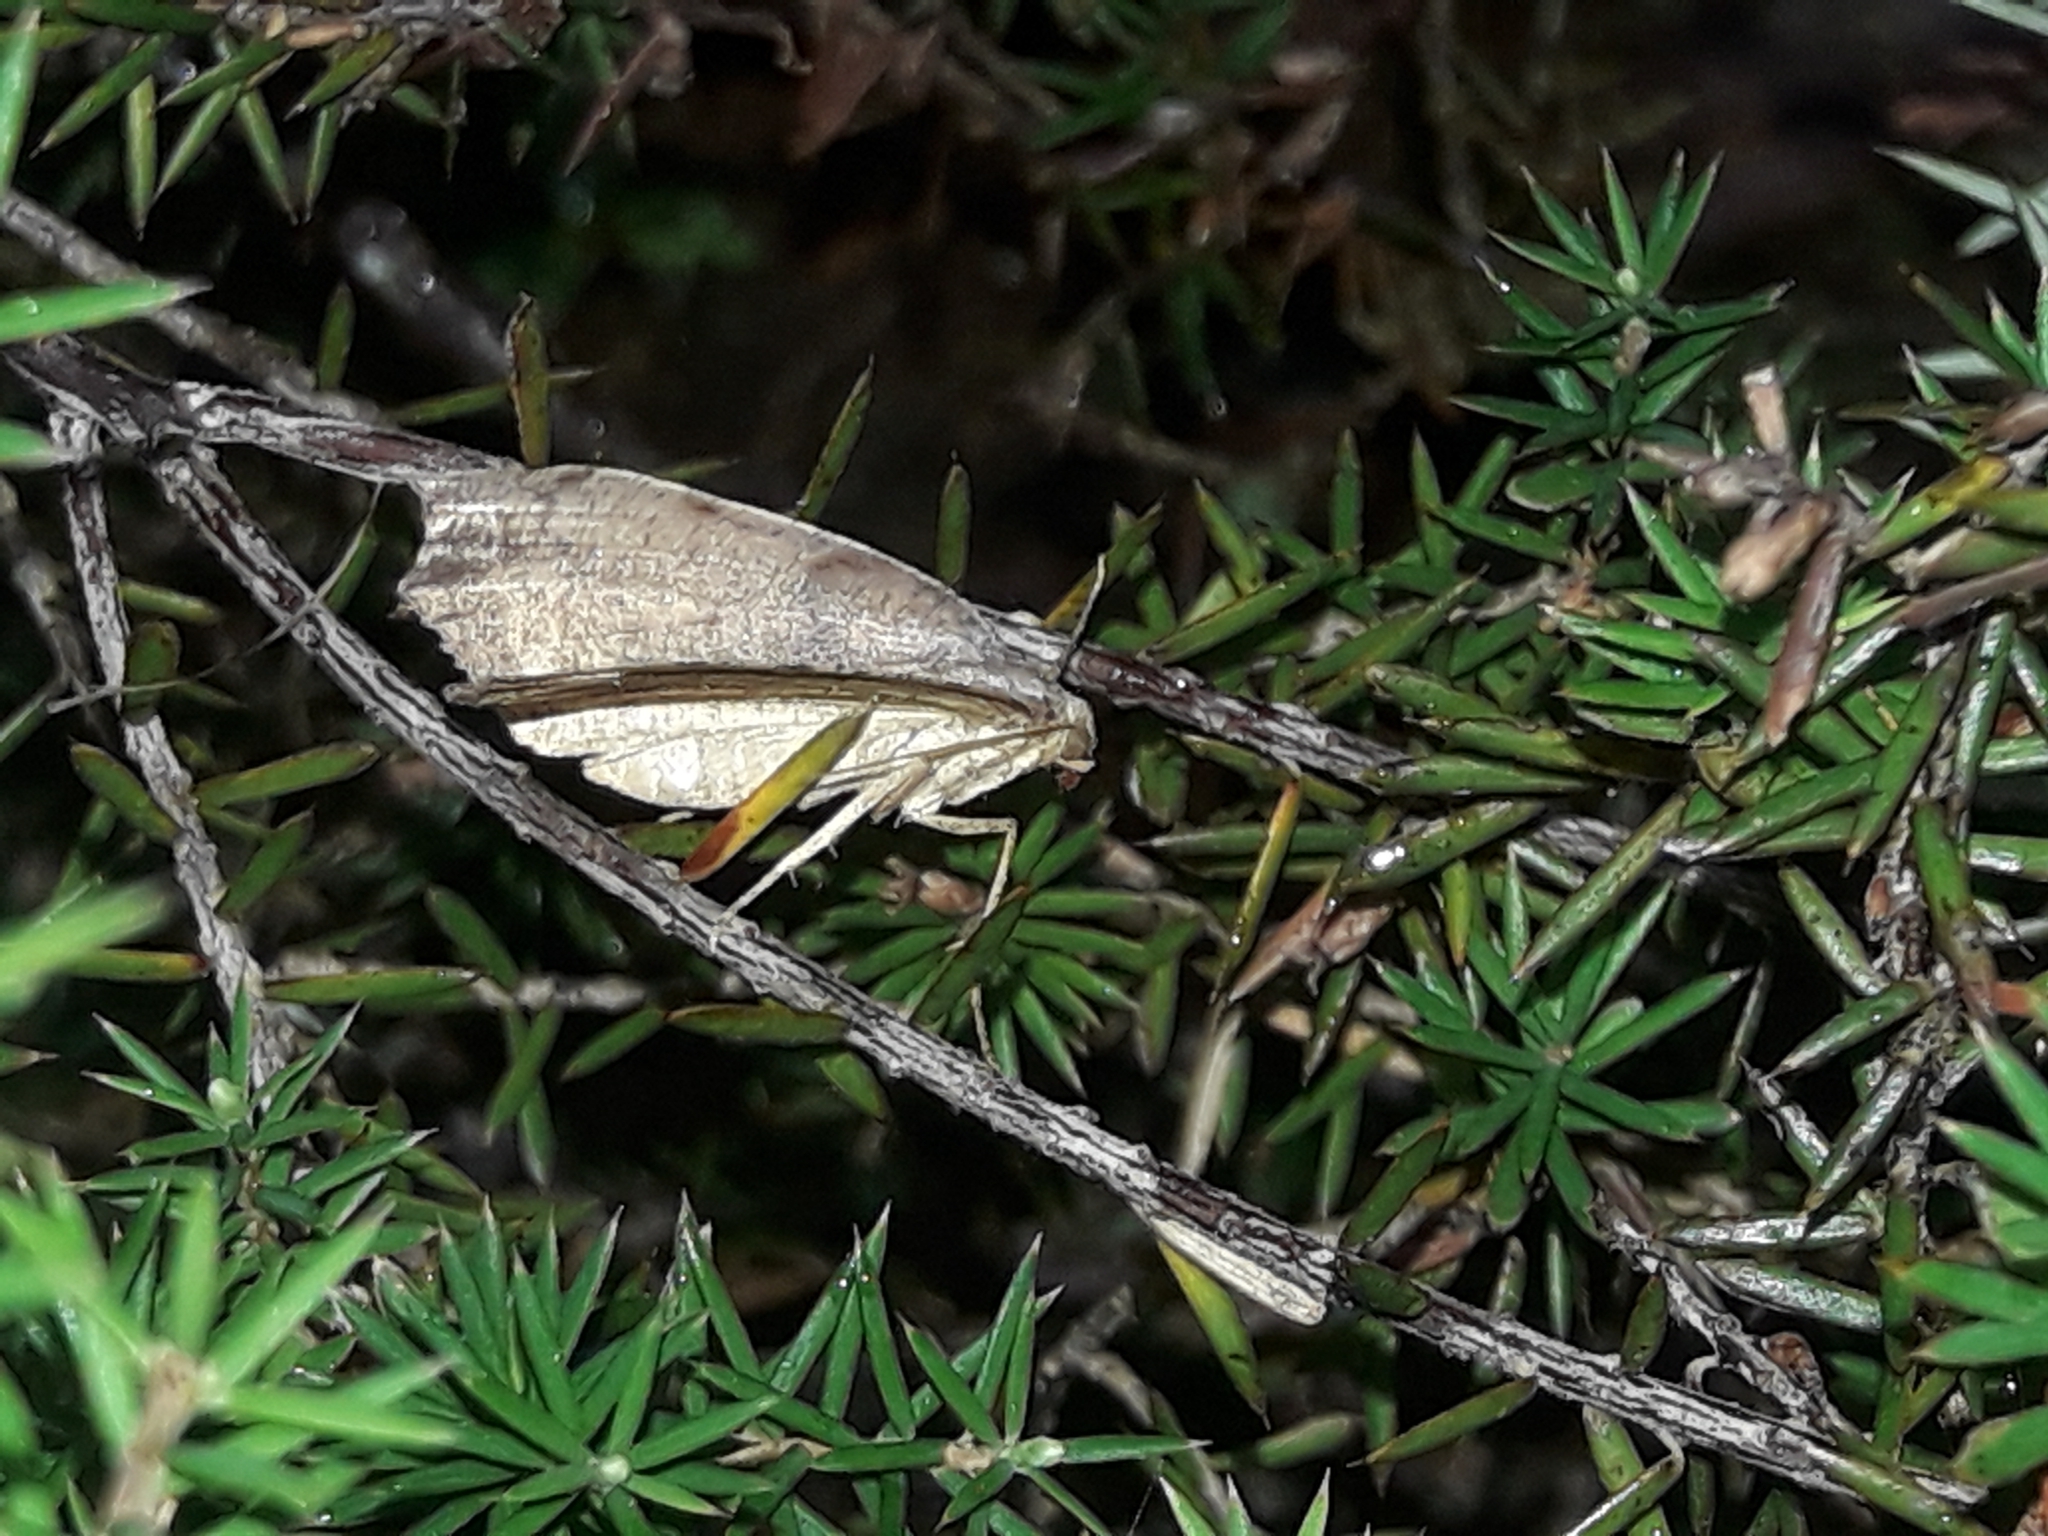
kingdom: Animalia
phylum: Arthropoda
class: Insecta
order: Lepidoptera
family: Geometridae
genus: Sestra
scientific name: Sestra flexata
